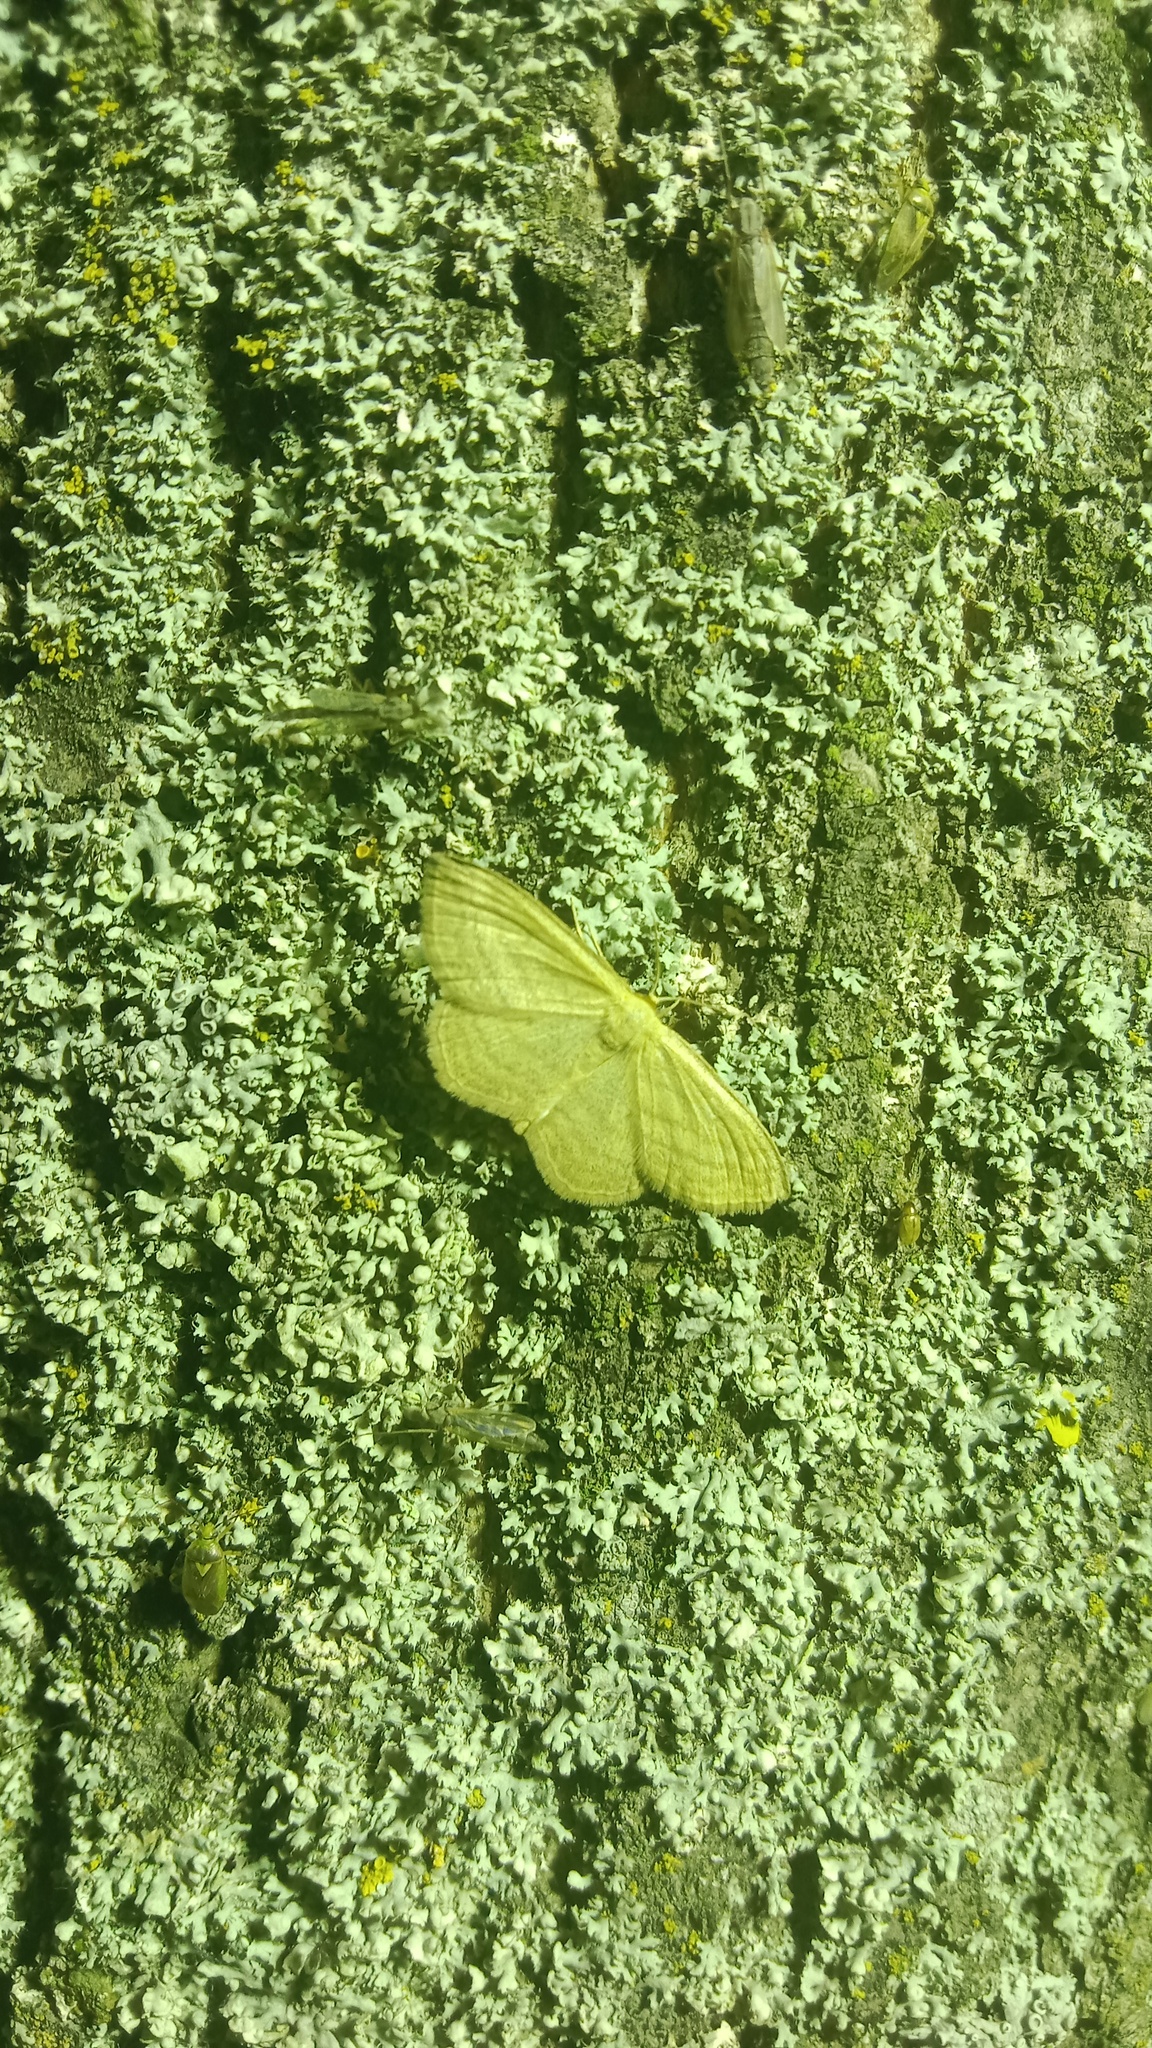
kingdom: Animalia
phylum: Arthropoda
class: Insecta
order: Lepidoptera
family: Geometridae
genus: Scopula
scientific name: Scopula virgulata
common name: Streaked wave
